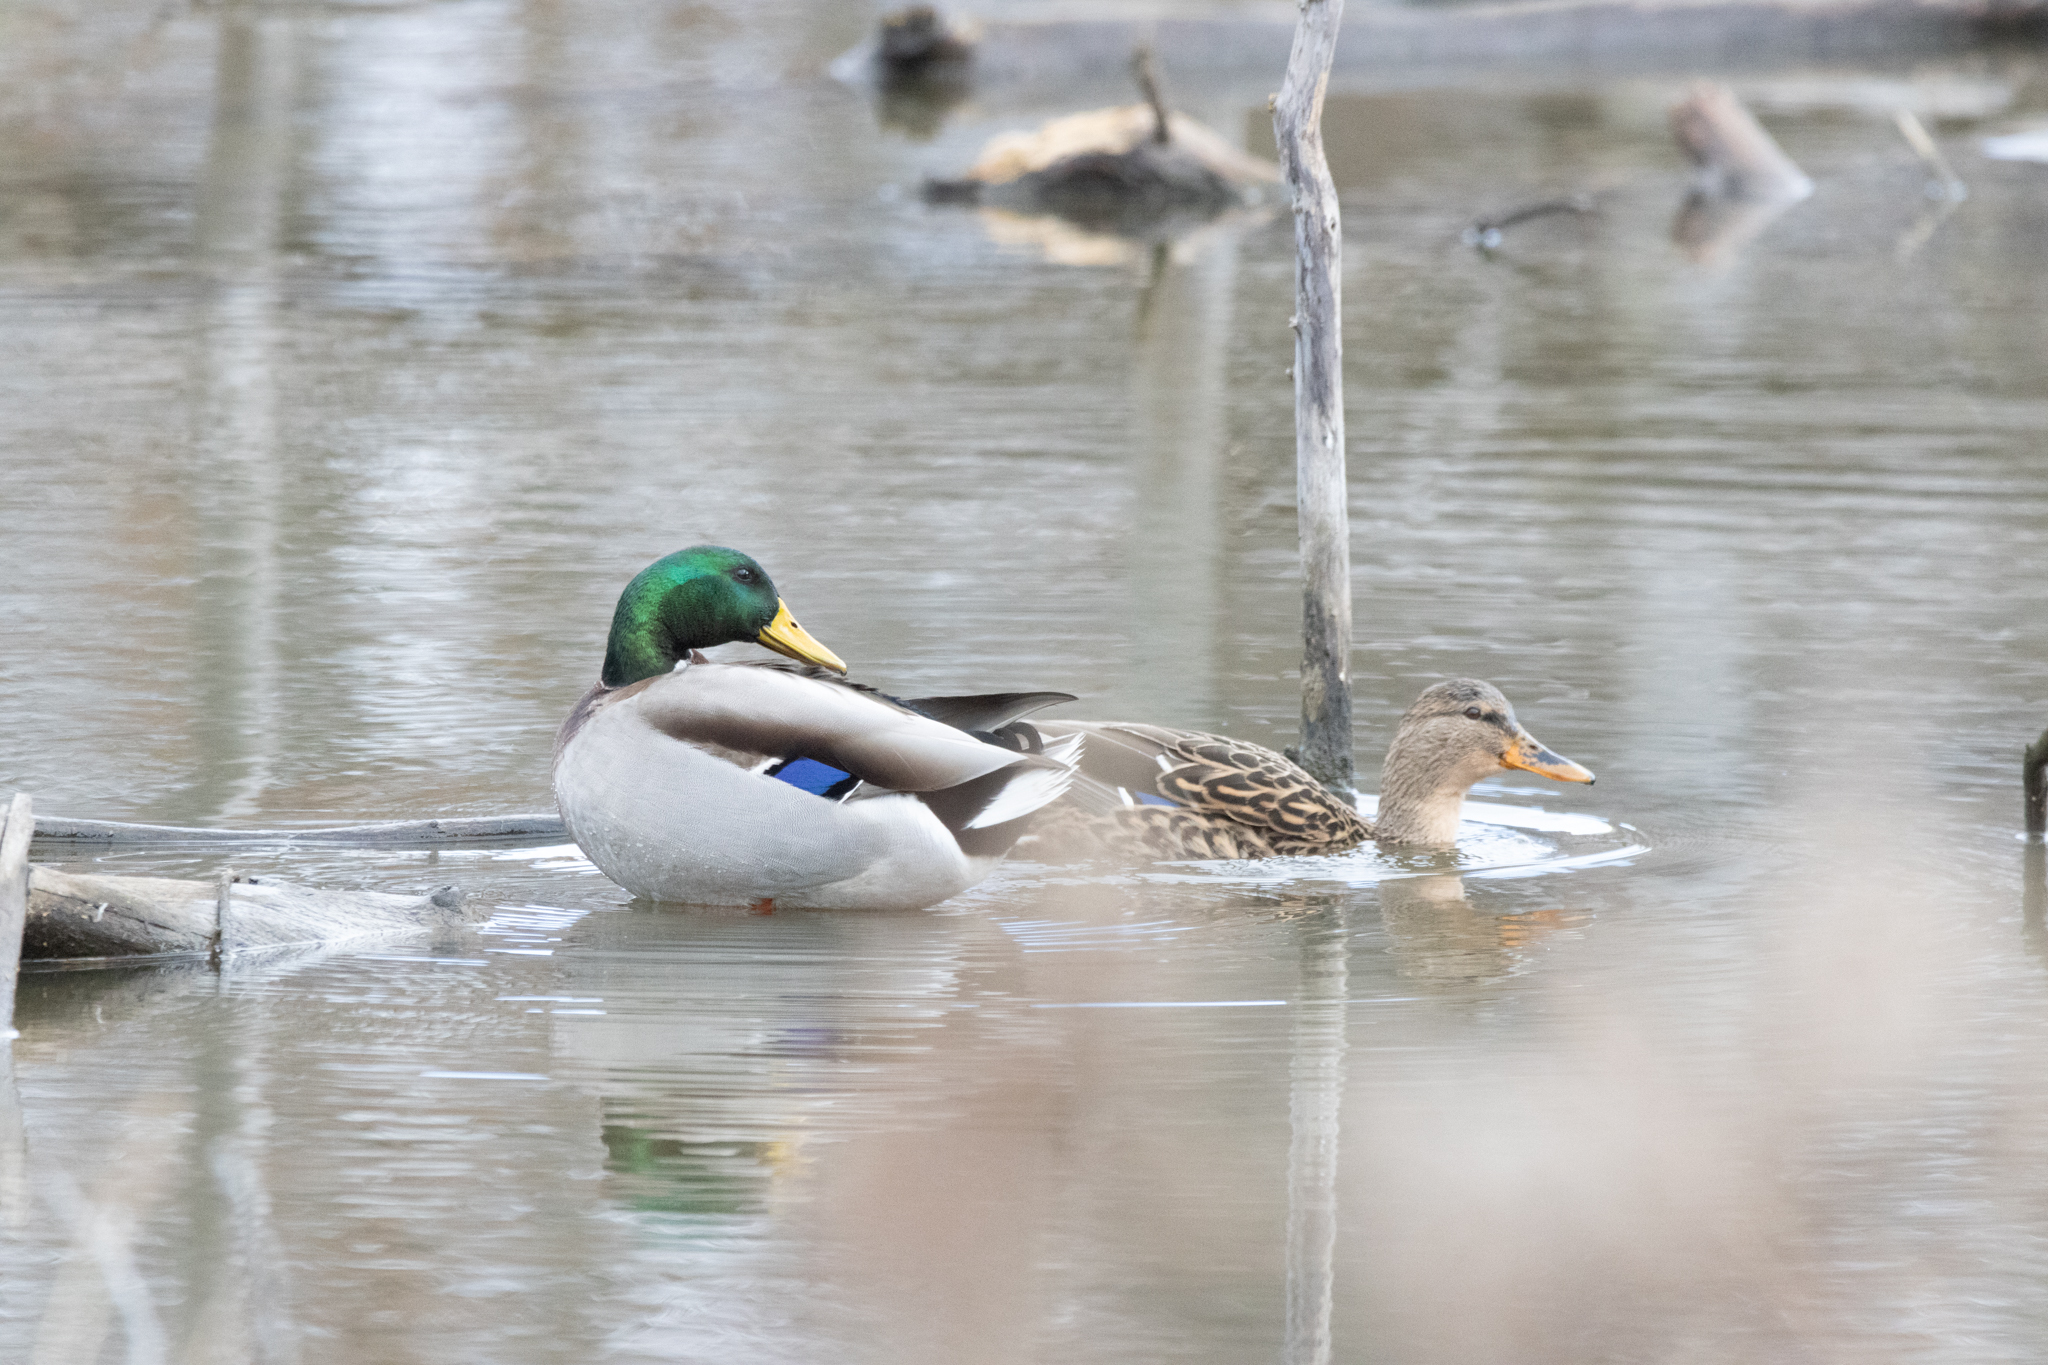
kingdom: Animalia
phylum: Chordata
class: Aves
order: Anseriformes
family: Anatidae
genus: Anas
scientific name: Anas platyrhynchos
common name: Mallard
